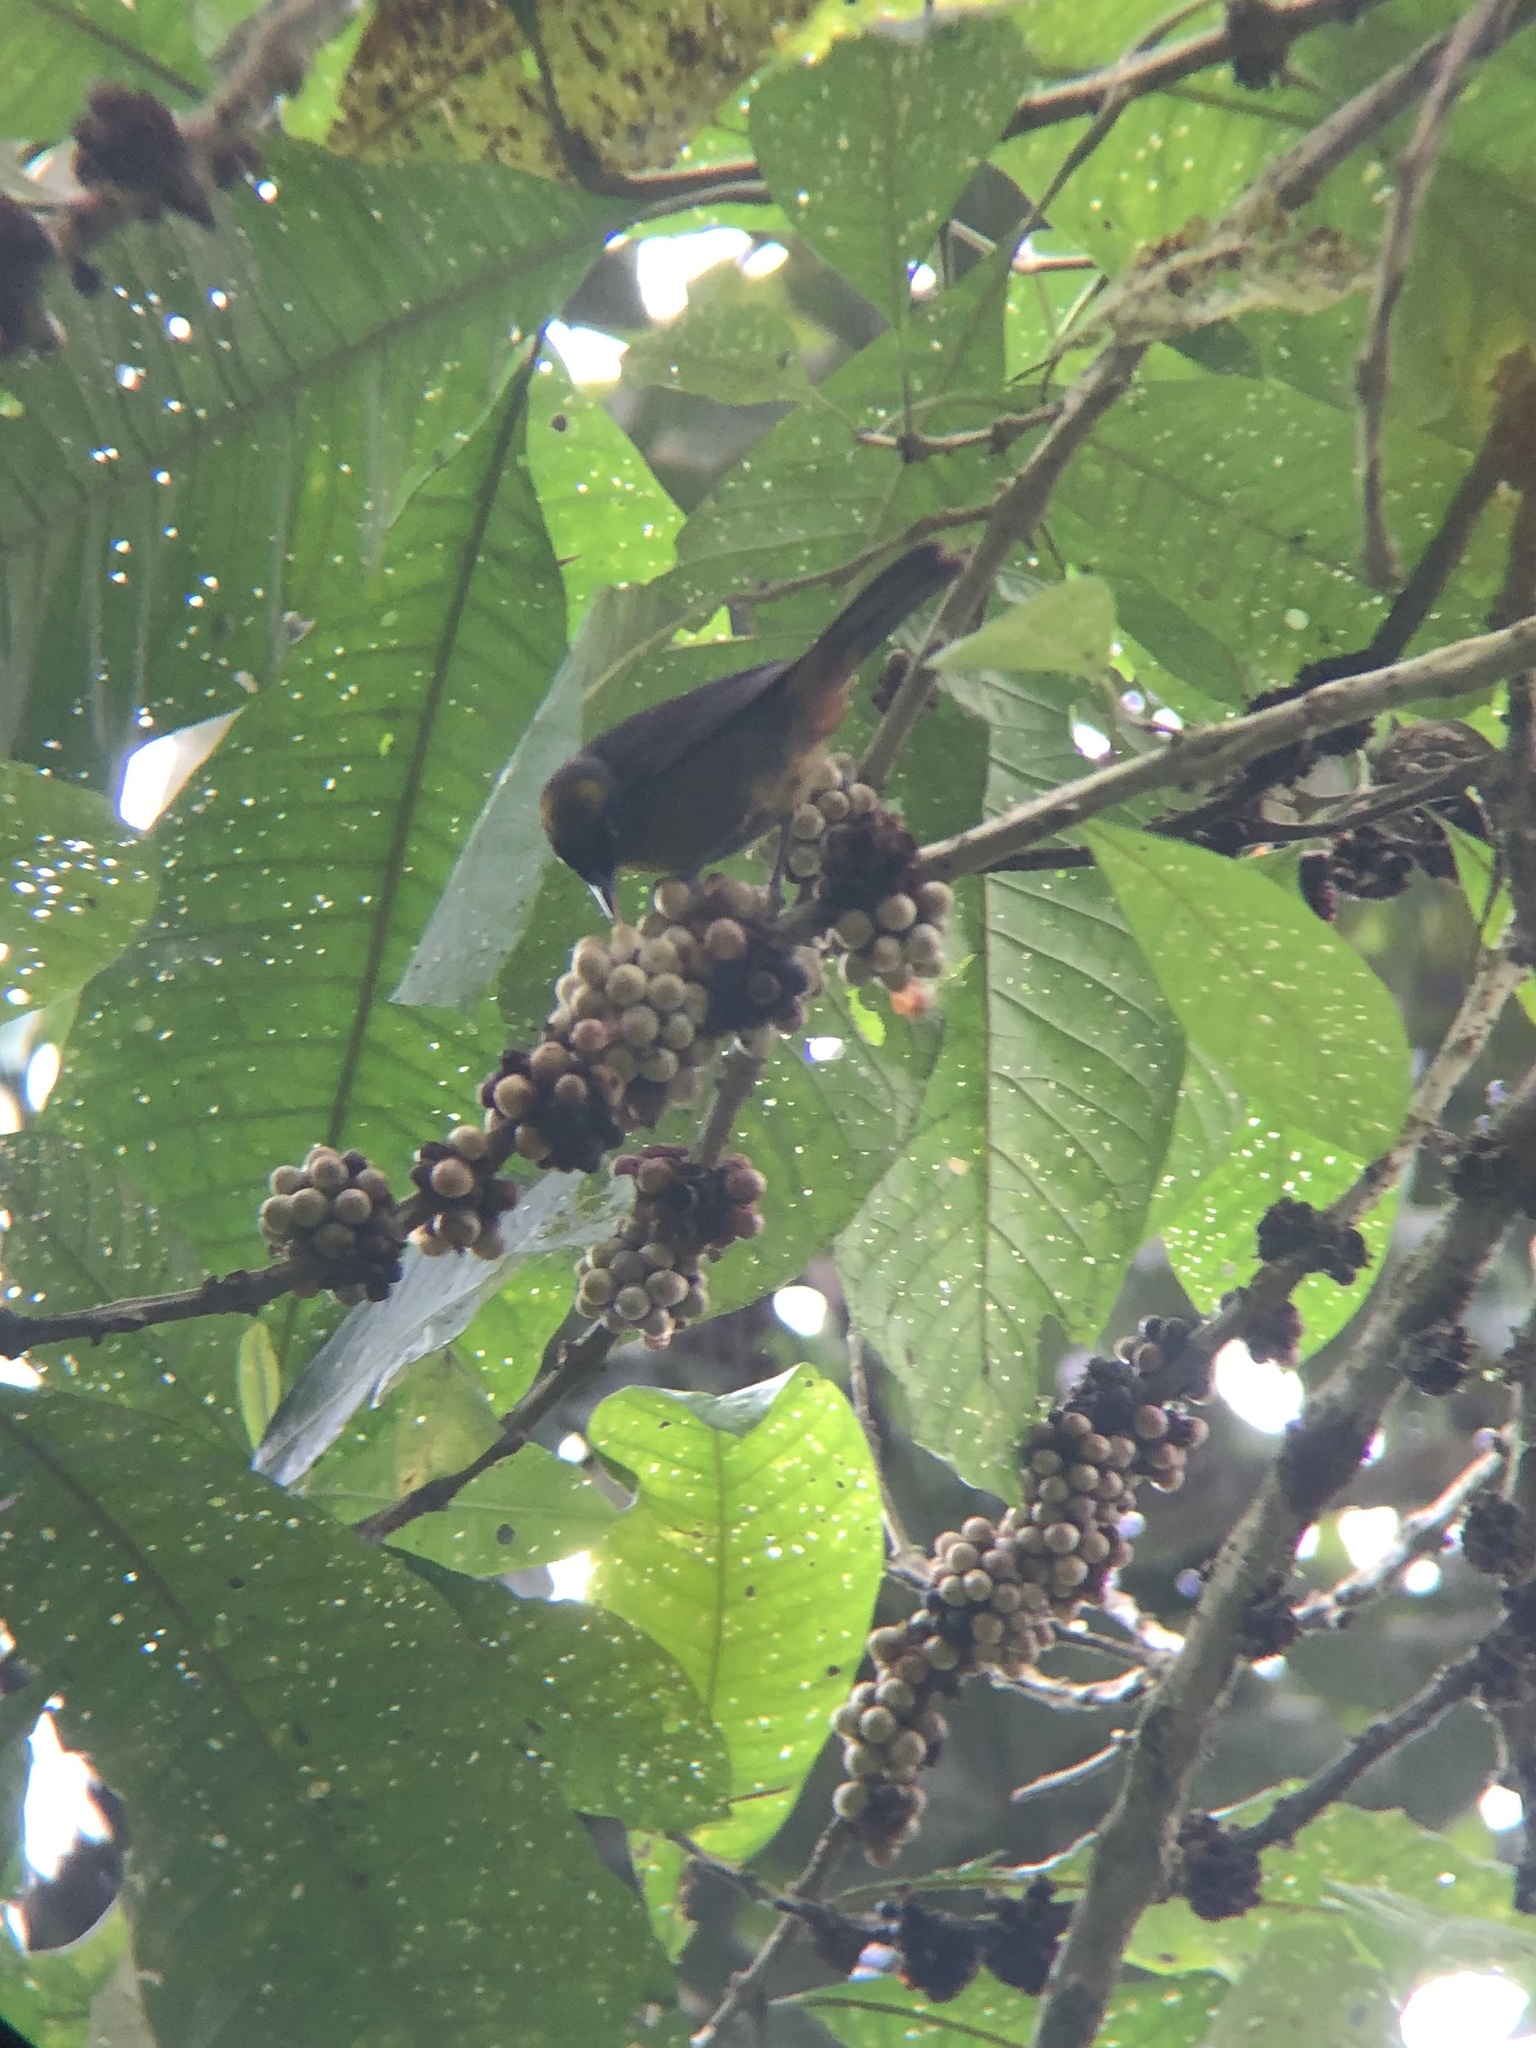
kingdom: Animalia
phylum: Chordata
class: Aves
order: Passeriformes
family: Mitrospingidae
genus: Mitrospingus
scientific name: Mitrospingus cassinii
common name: Dusky-faced tanager
